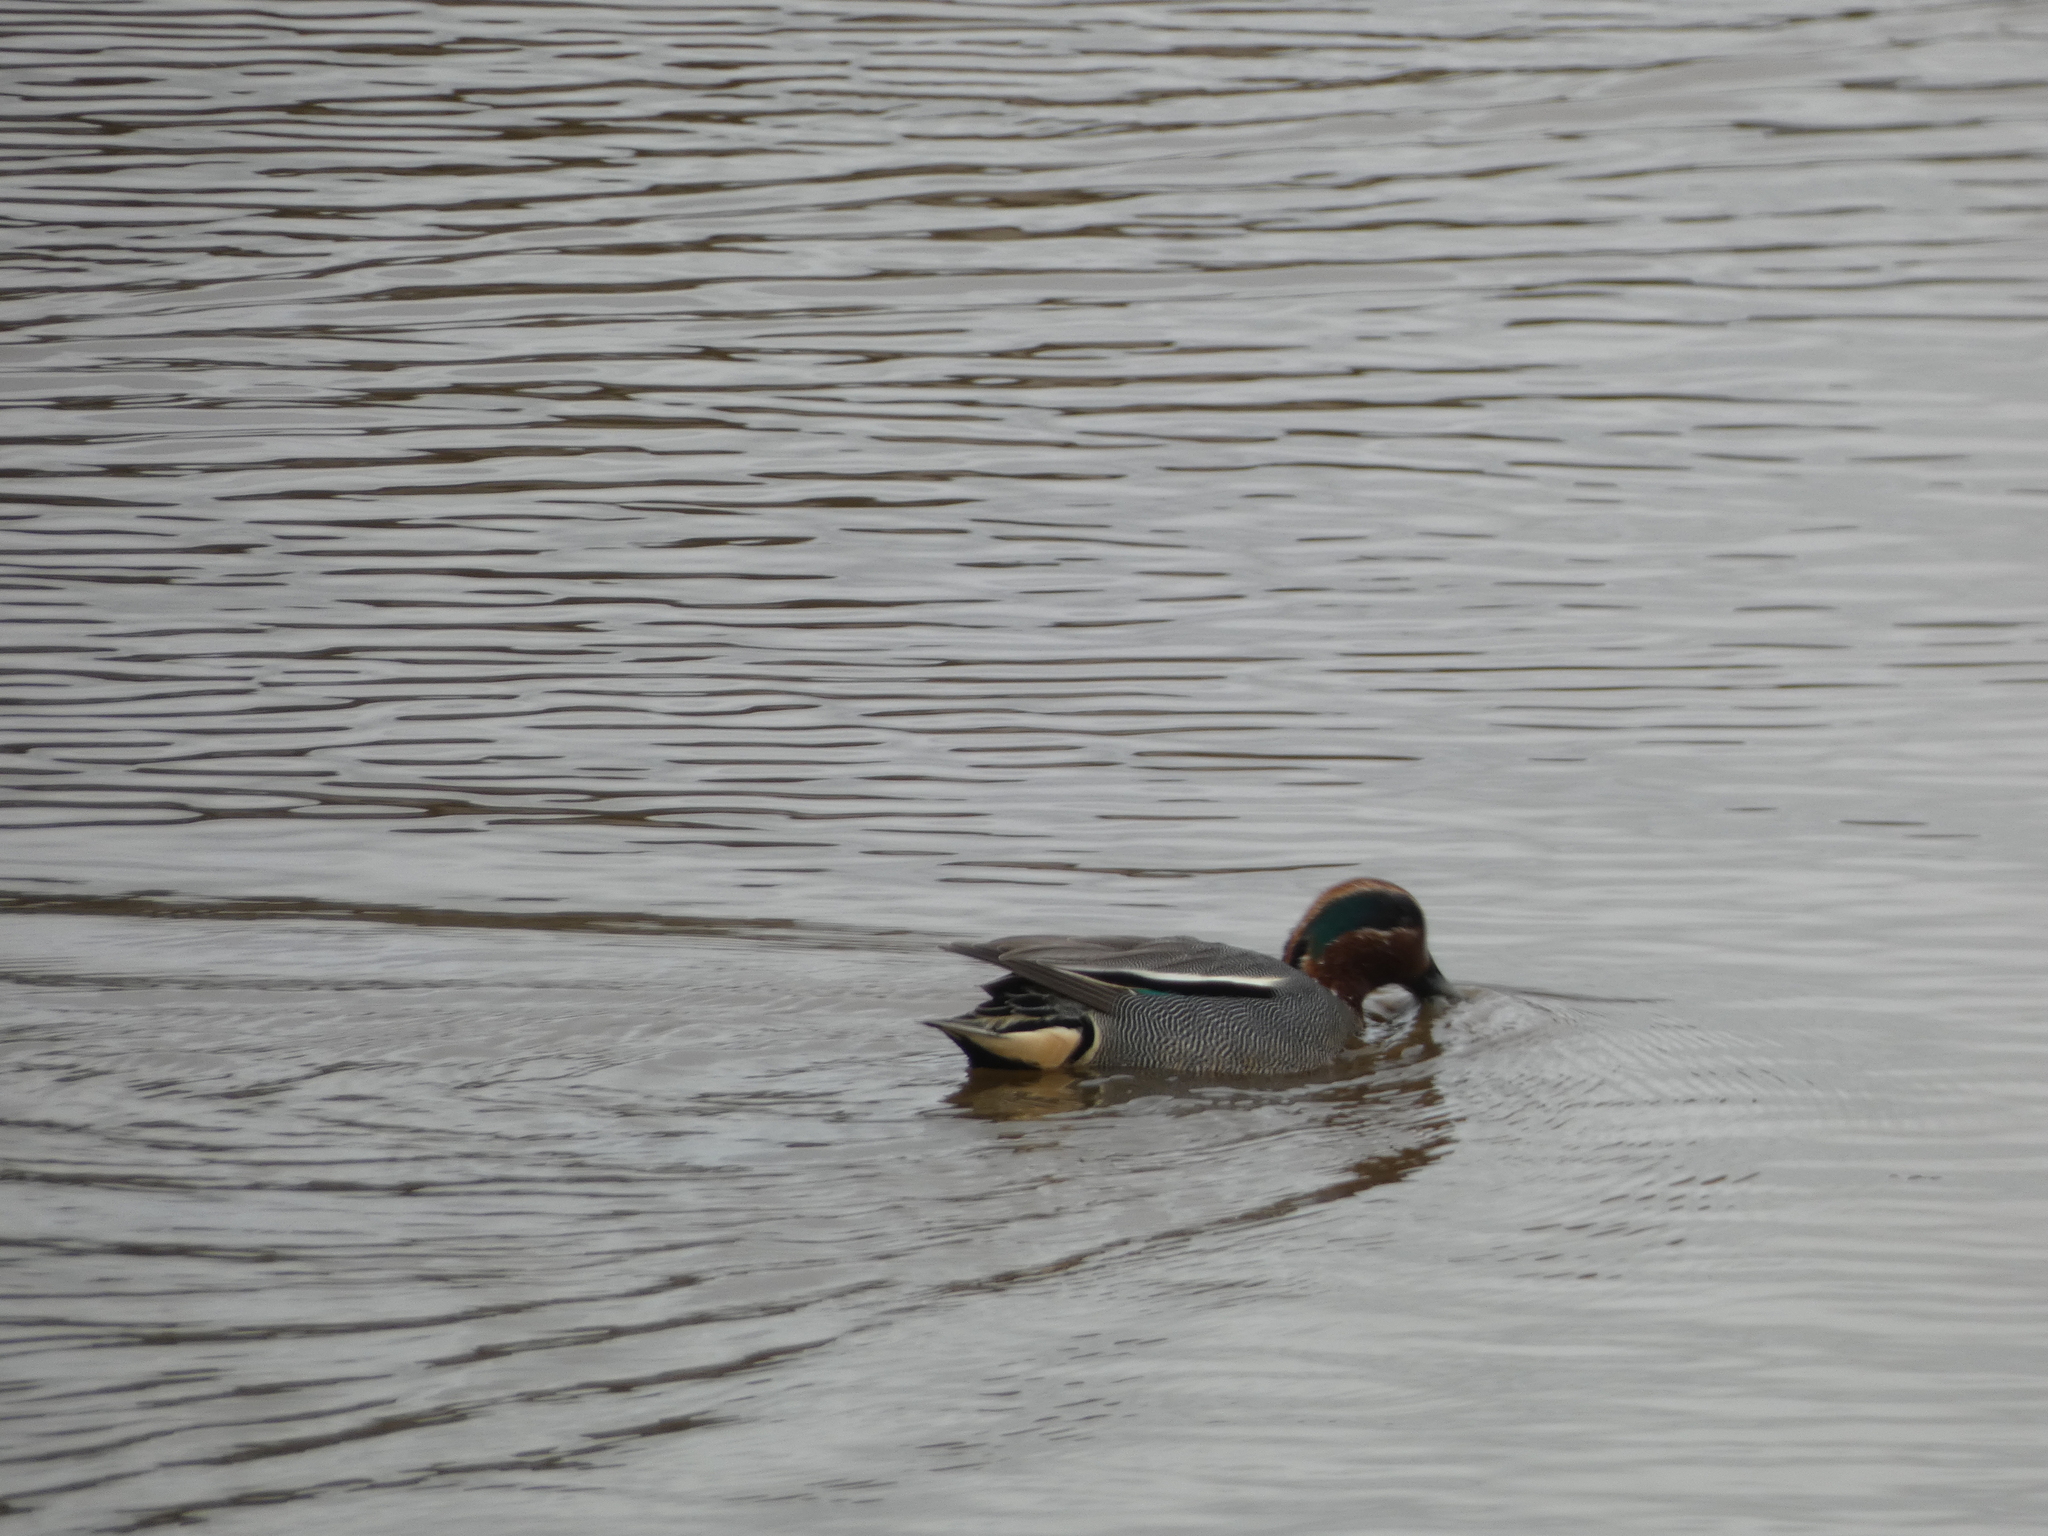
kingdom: Animalia
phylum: Chordata
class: Aves
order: Anseriformes
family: Anatidae
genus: Anas
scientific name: Anas crecca
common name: Eurasian teal
